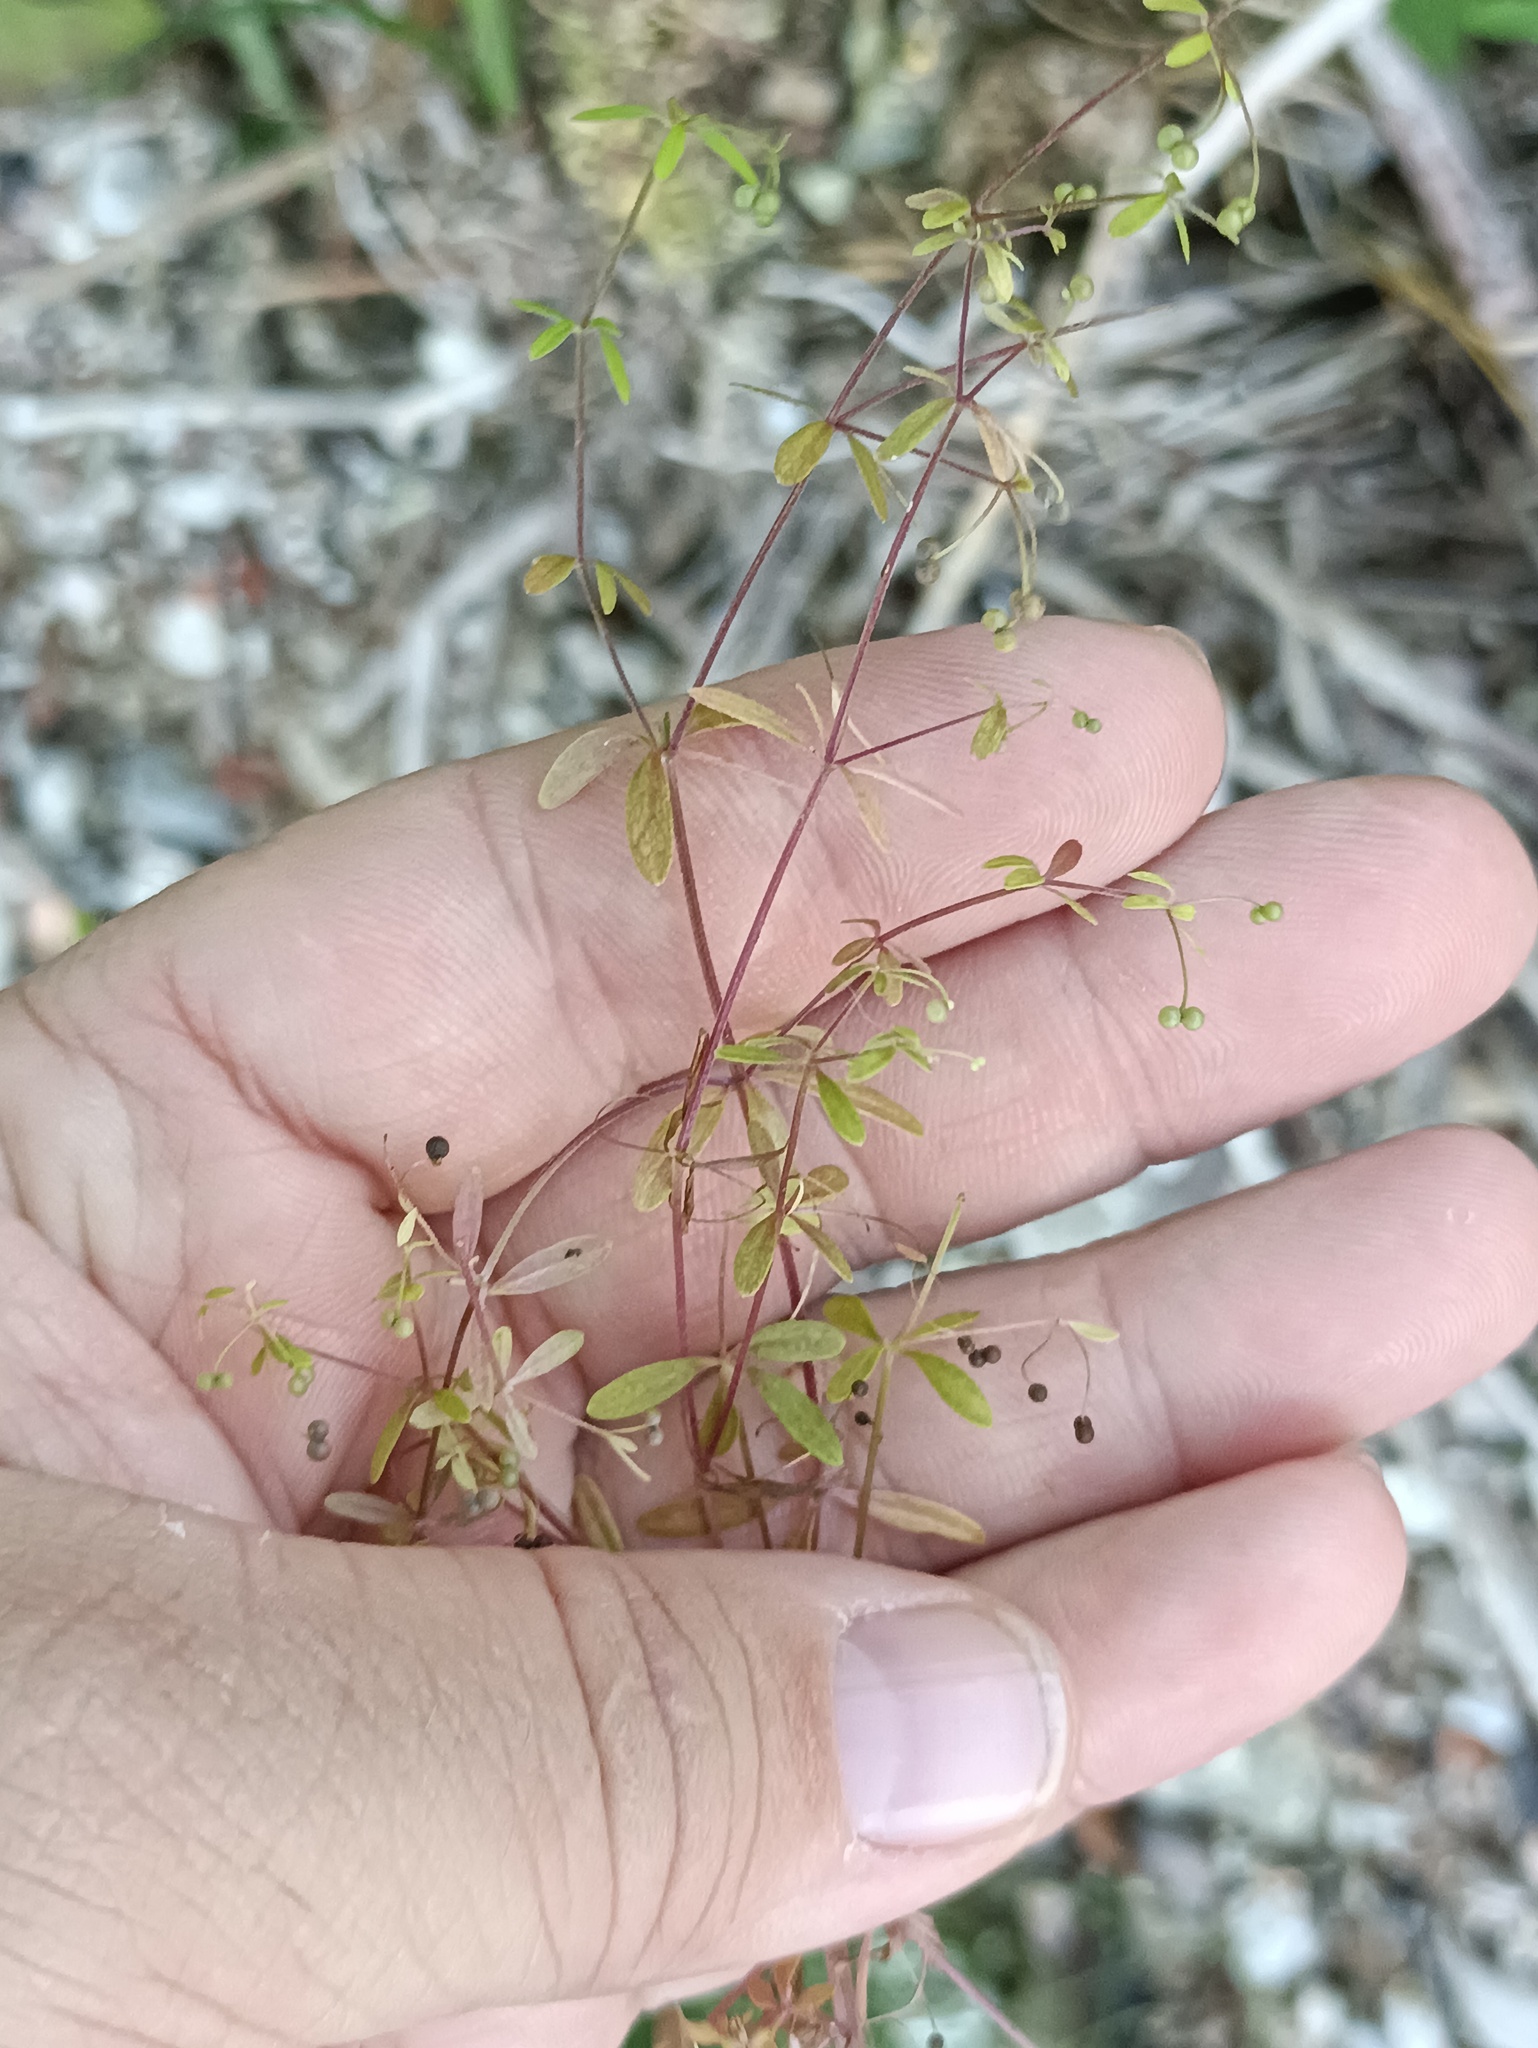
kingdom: Plantae
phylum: Tracheophyta
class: Magnoliopsida
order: Gentianales
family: Rubiaceae
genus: Galium
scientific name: Galium trifidum
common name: Small bedstraw
